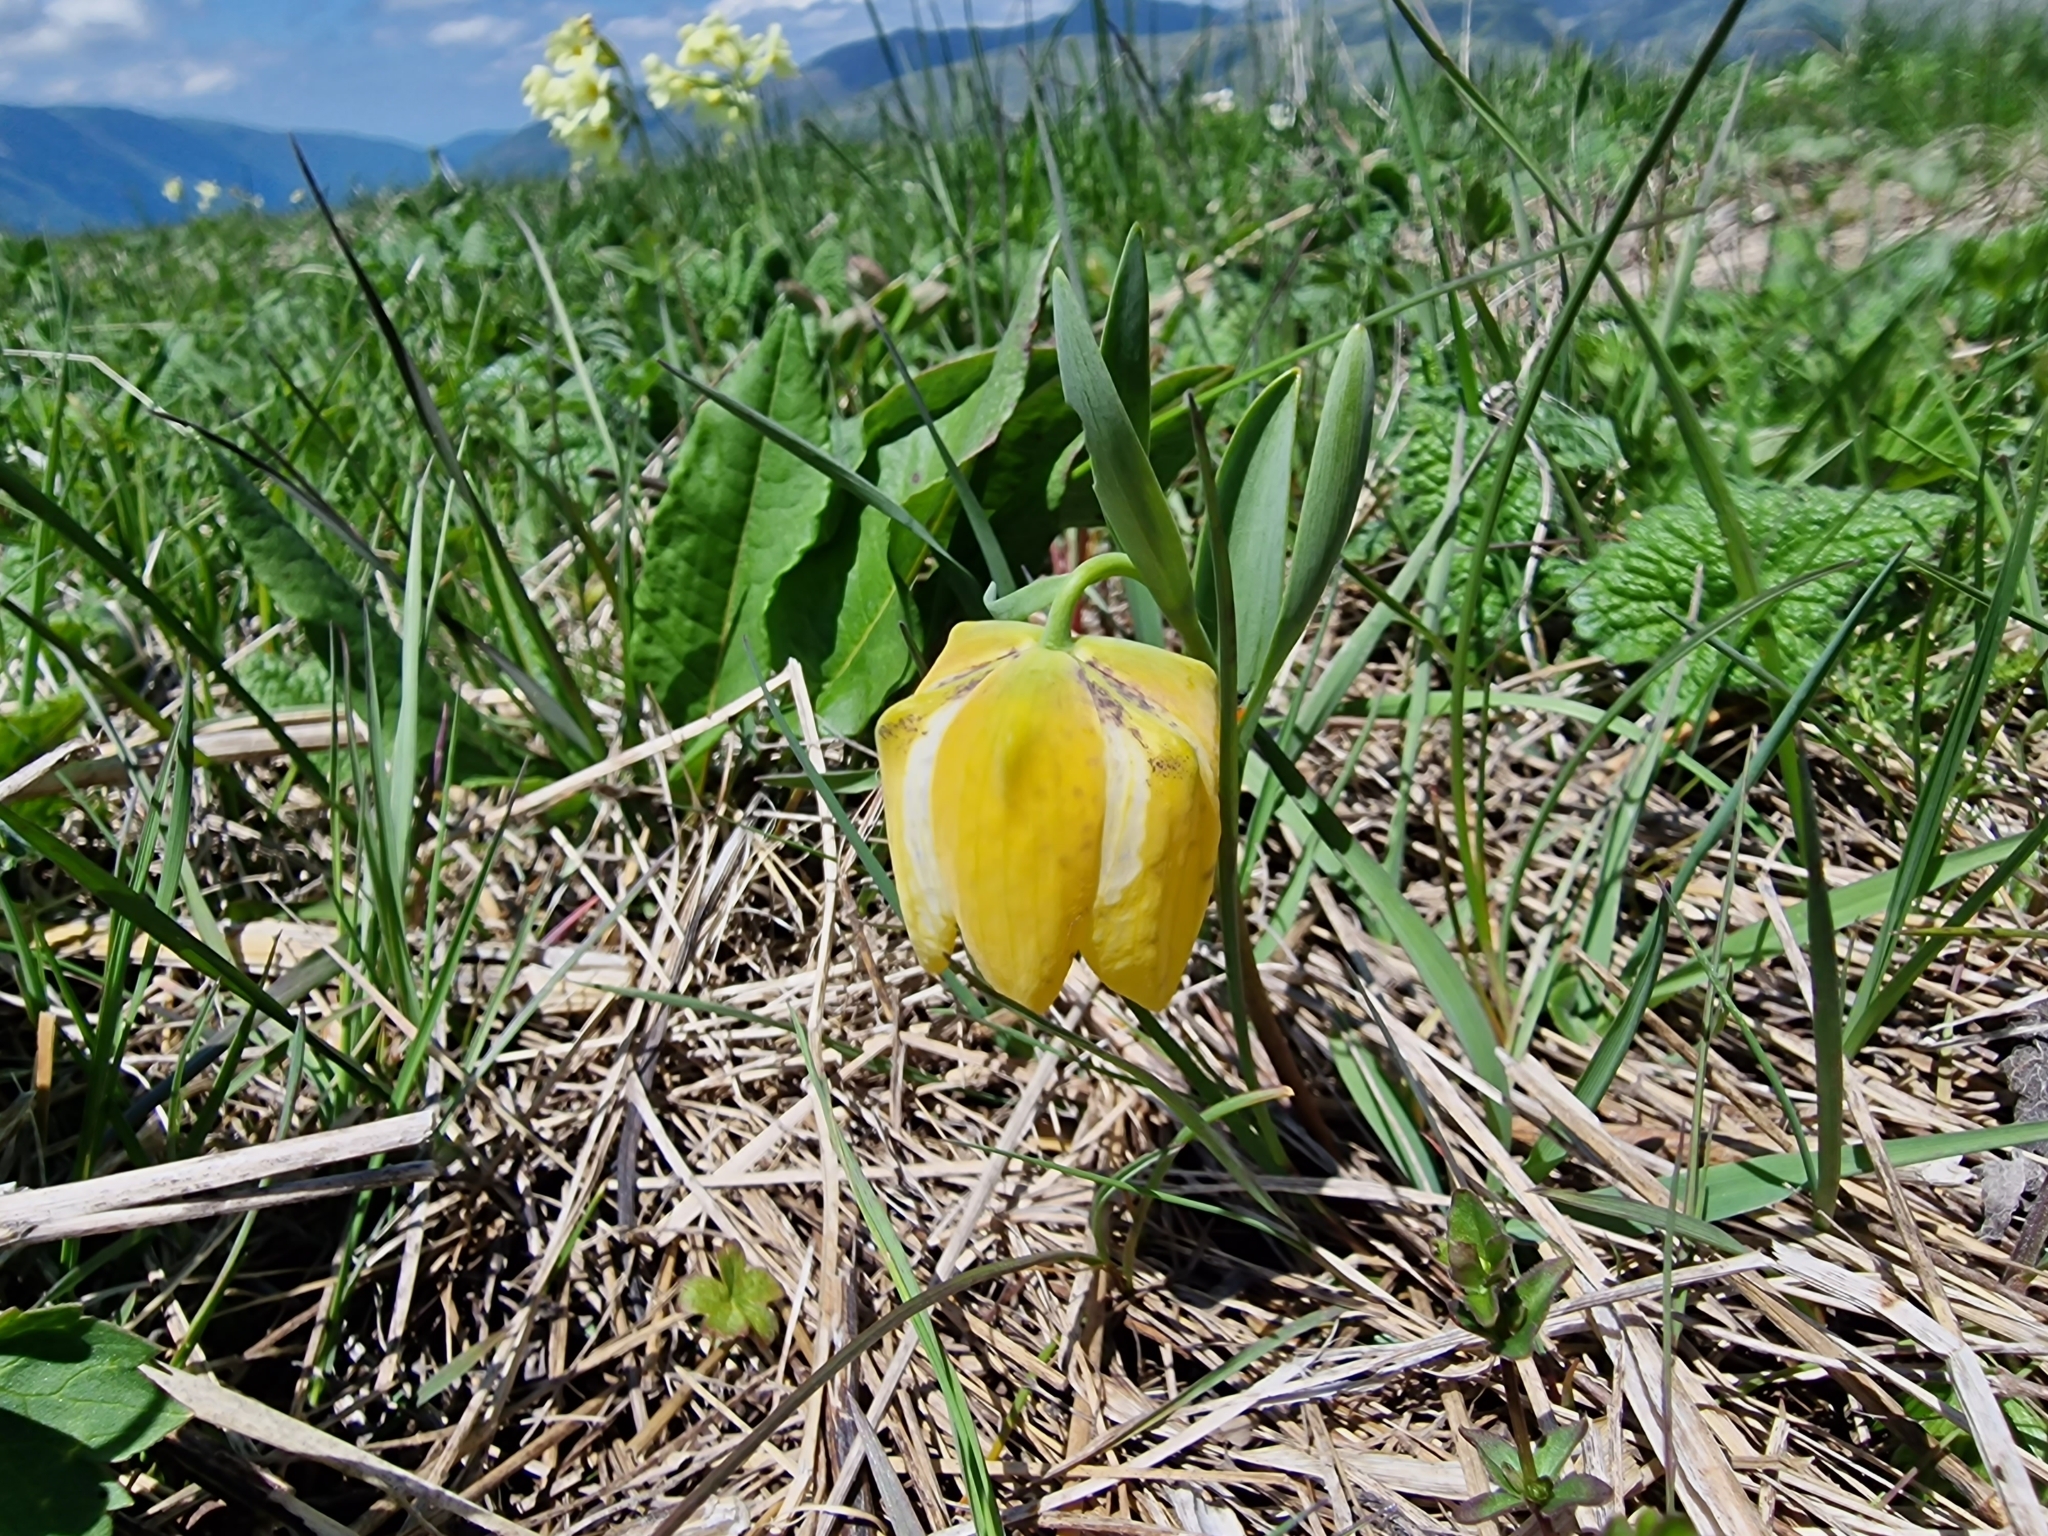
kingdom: Plantae
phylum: Tracheophyta
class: Liliopsida
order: Liliales
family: Liliaceae
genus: Fritillaria
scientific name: Fritillaria collina
